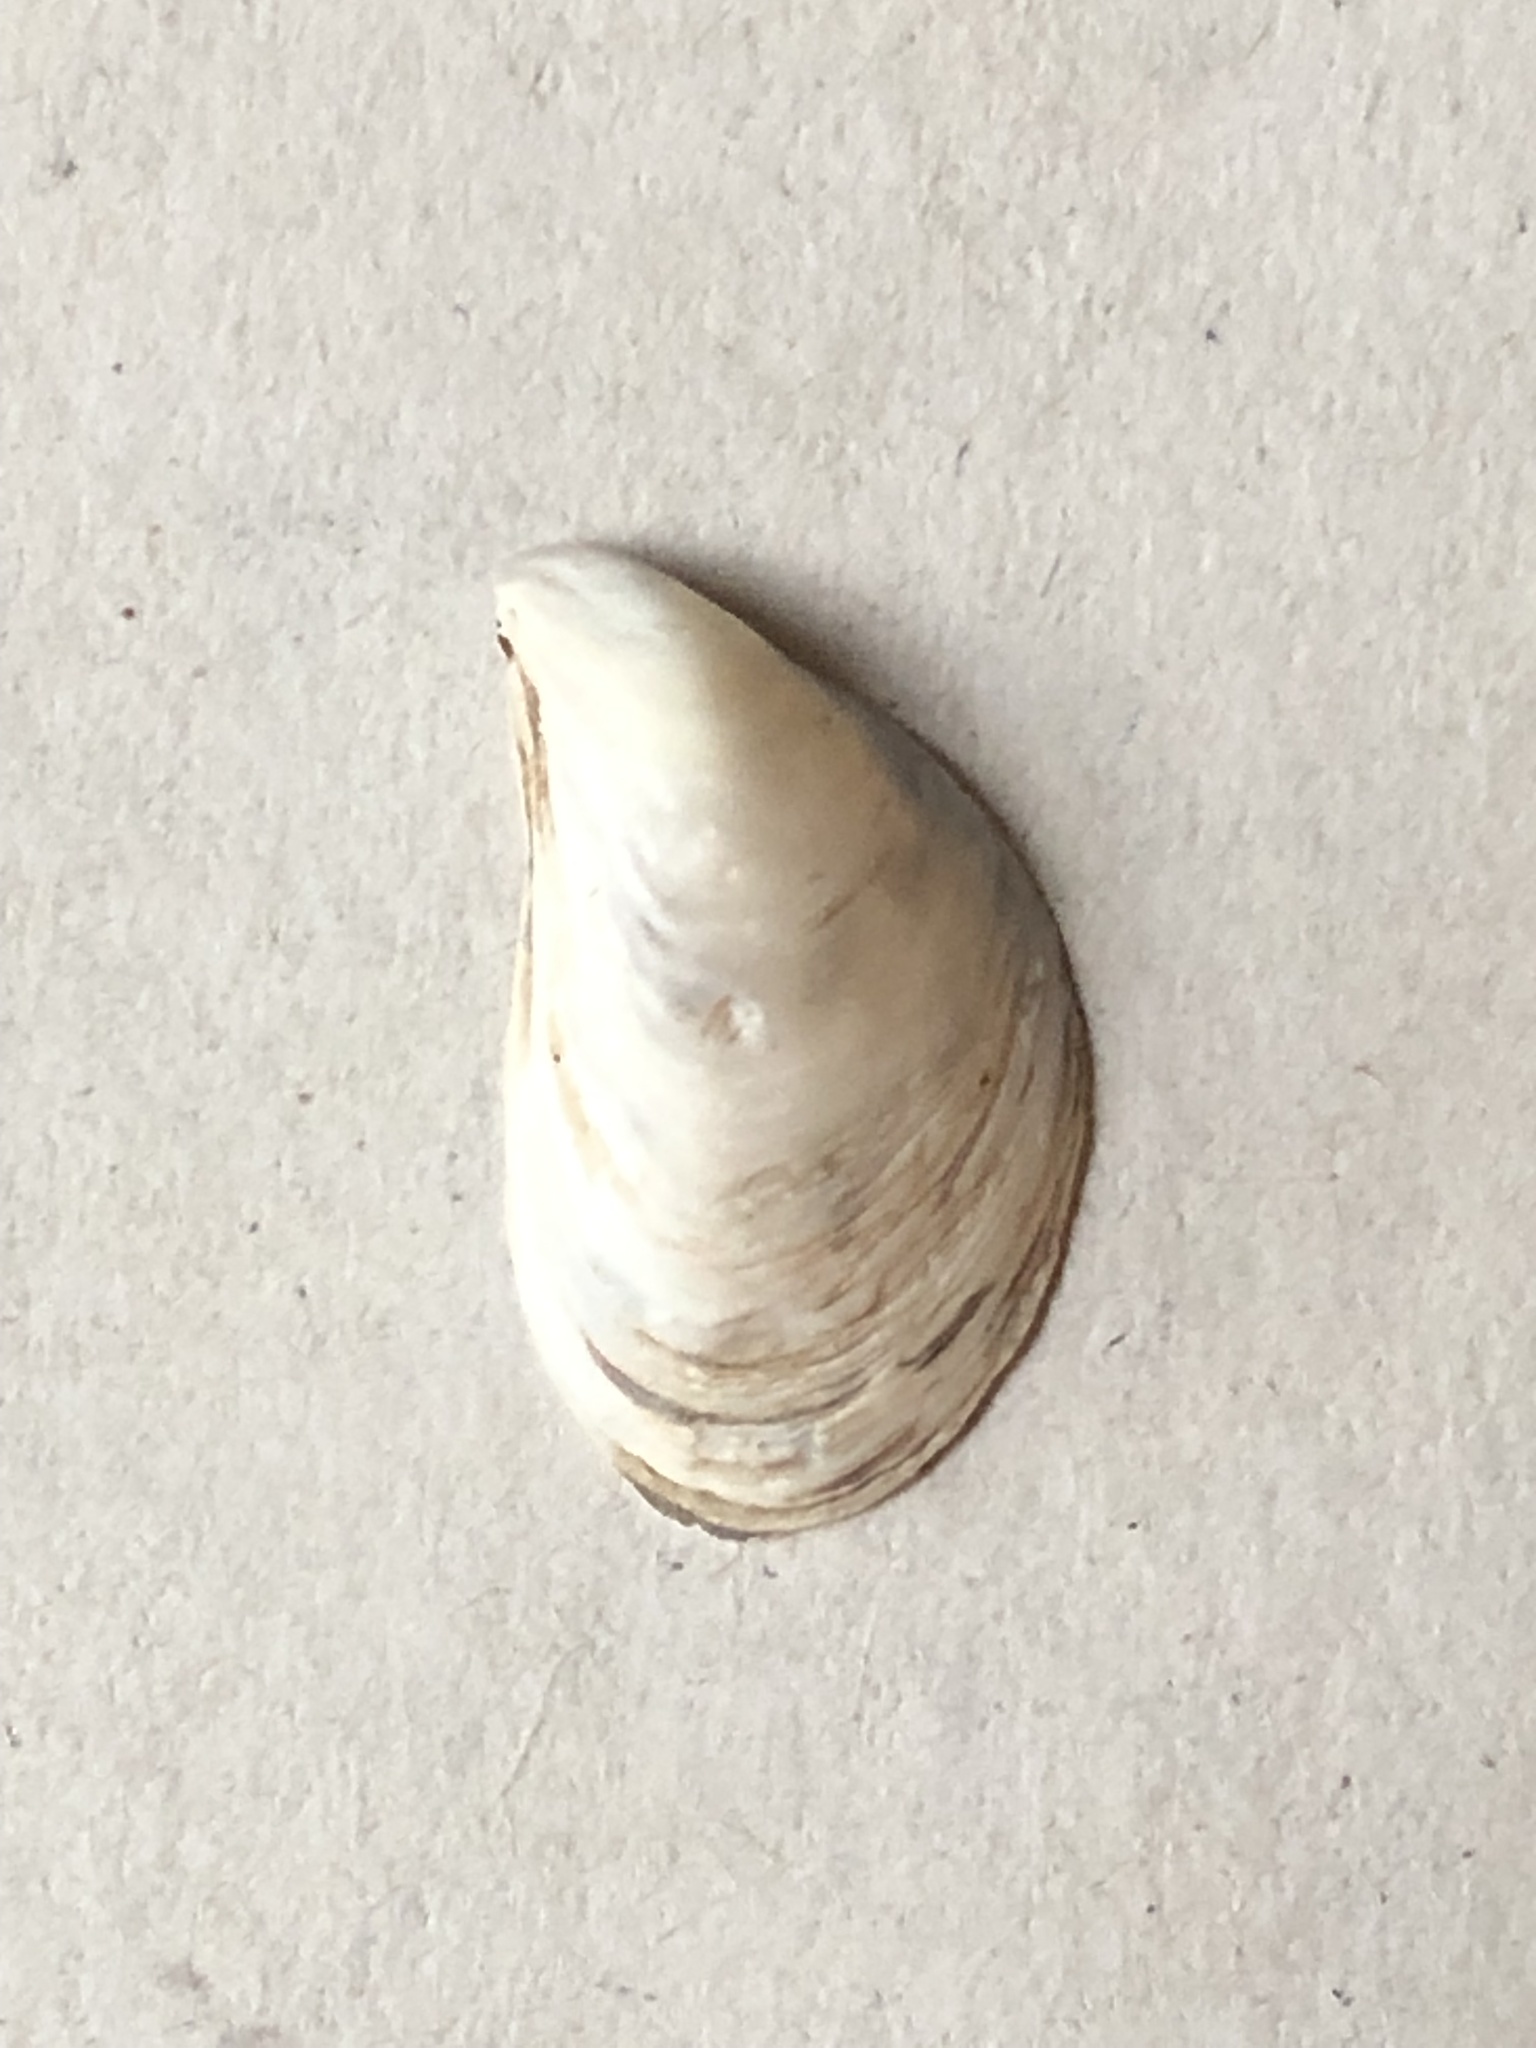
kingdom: Animalia
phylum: Mollusca
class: Bivalvia
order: Myida
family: Dreissenidae
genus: Dreissena
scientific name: Dreissena bugensis
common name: Quagga mussel
